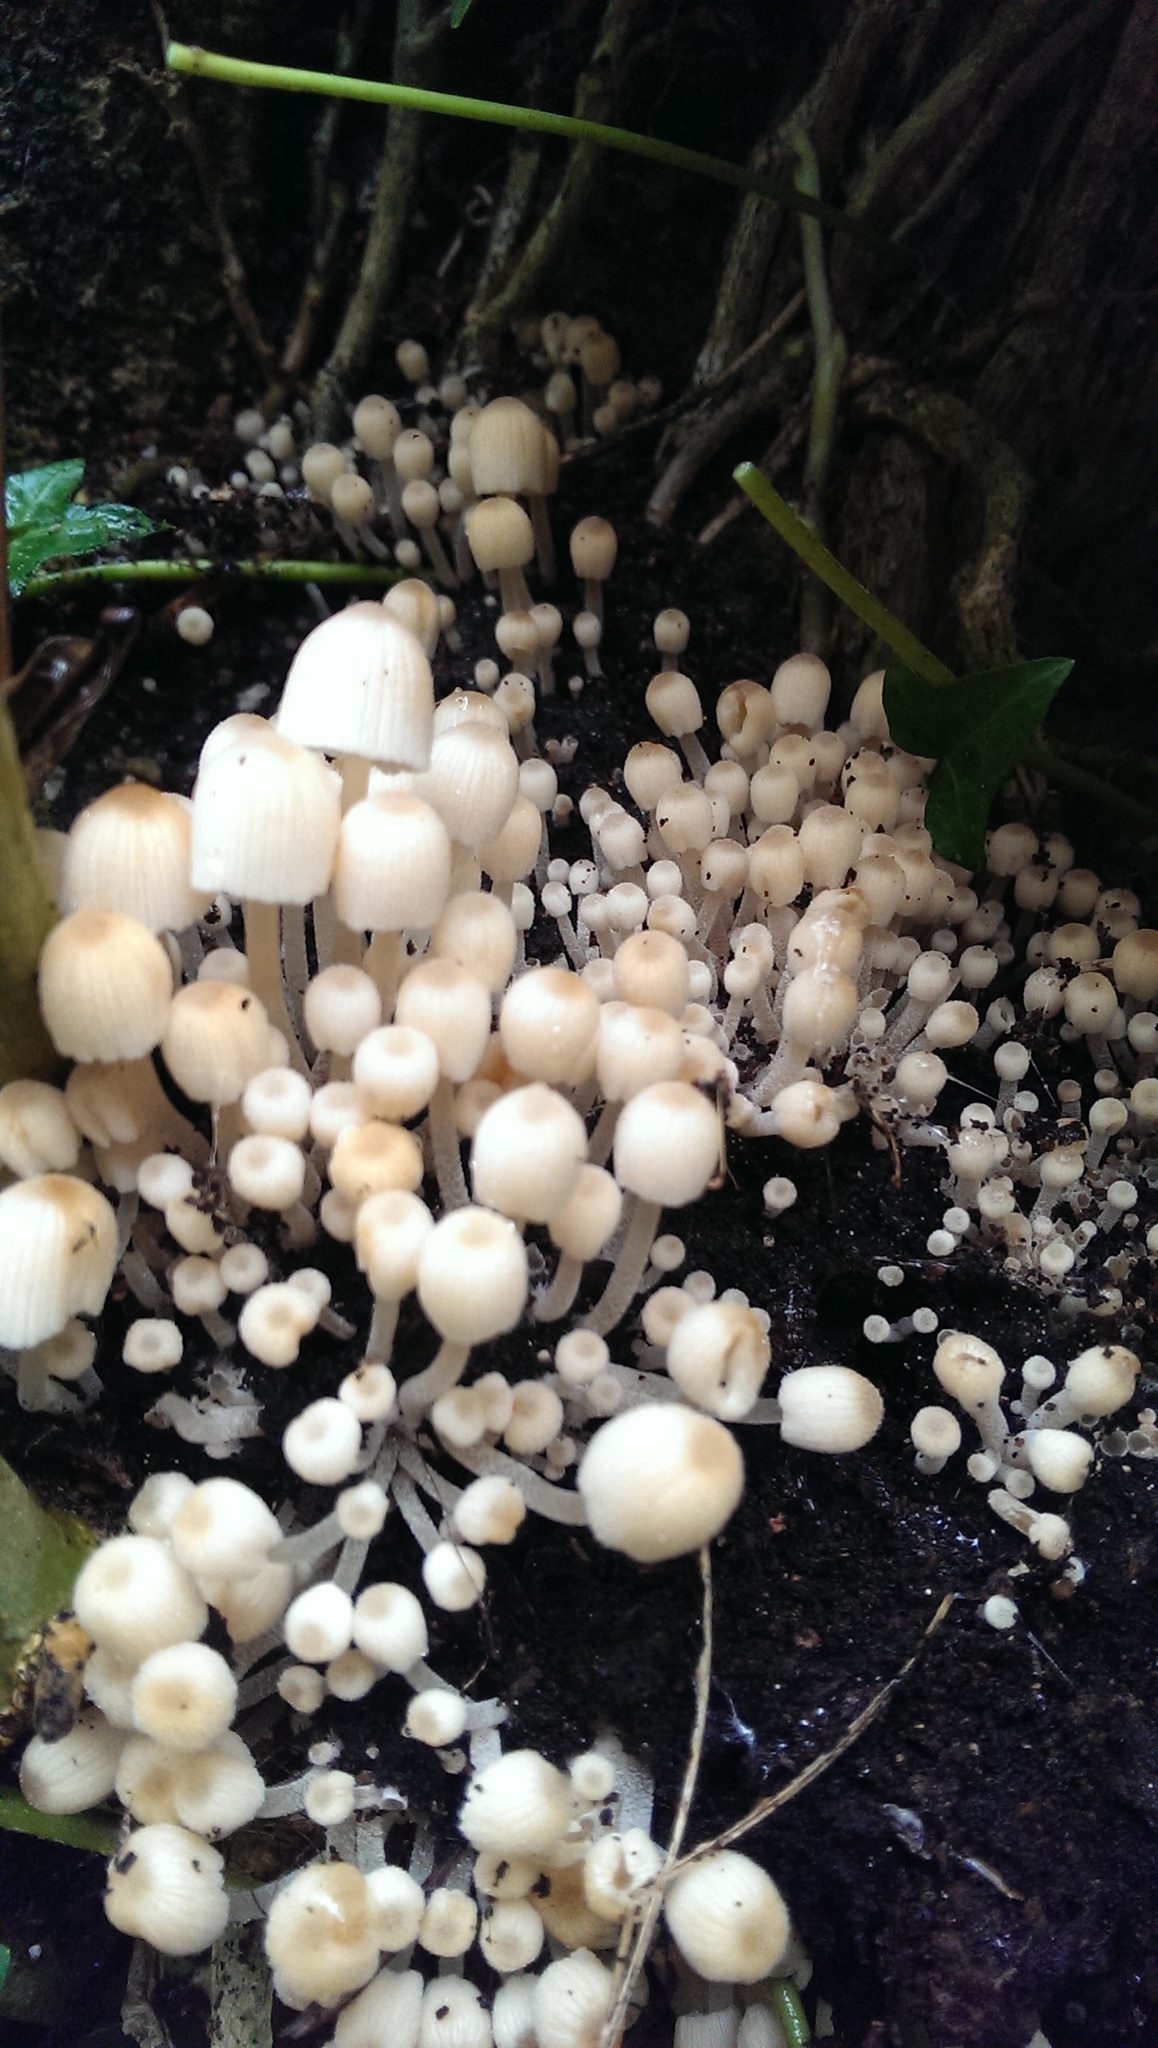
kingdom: Fungi
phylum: Basidiomycota
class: Agaricomycetes
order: Agaricales
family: Psathyrellaceae
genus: Coprinellus
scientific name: Coprinellus disseminatus
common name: Fairies' bonnets
